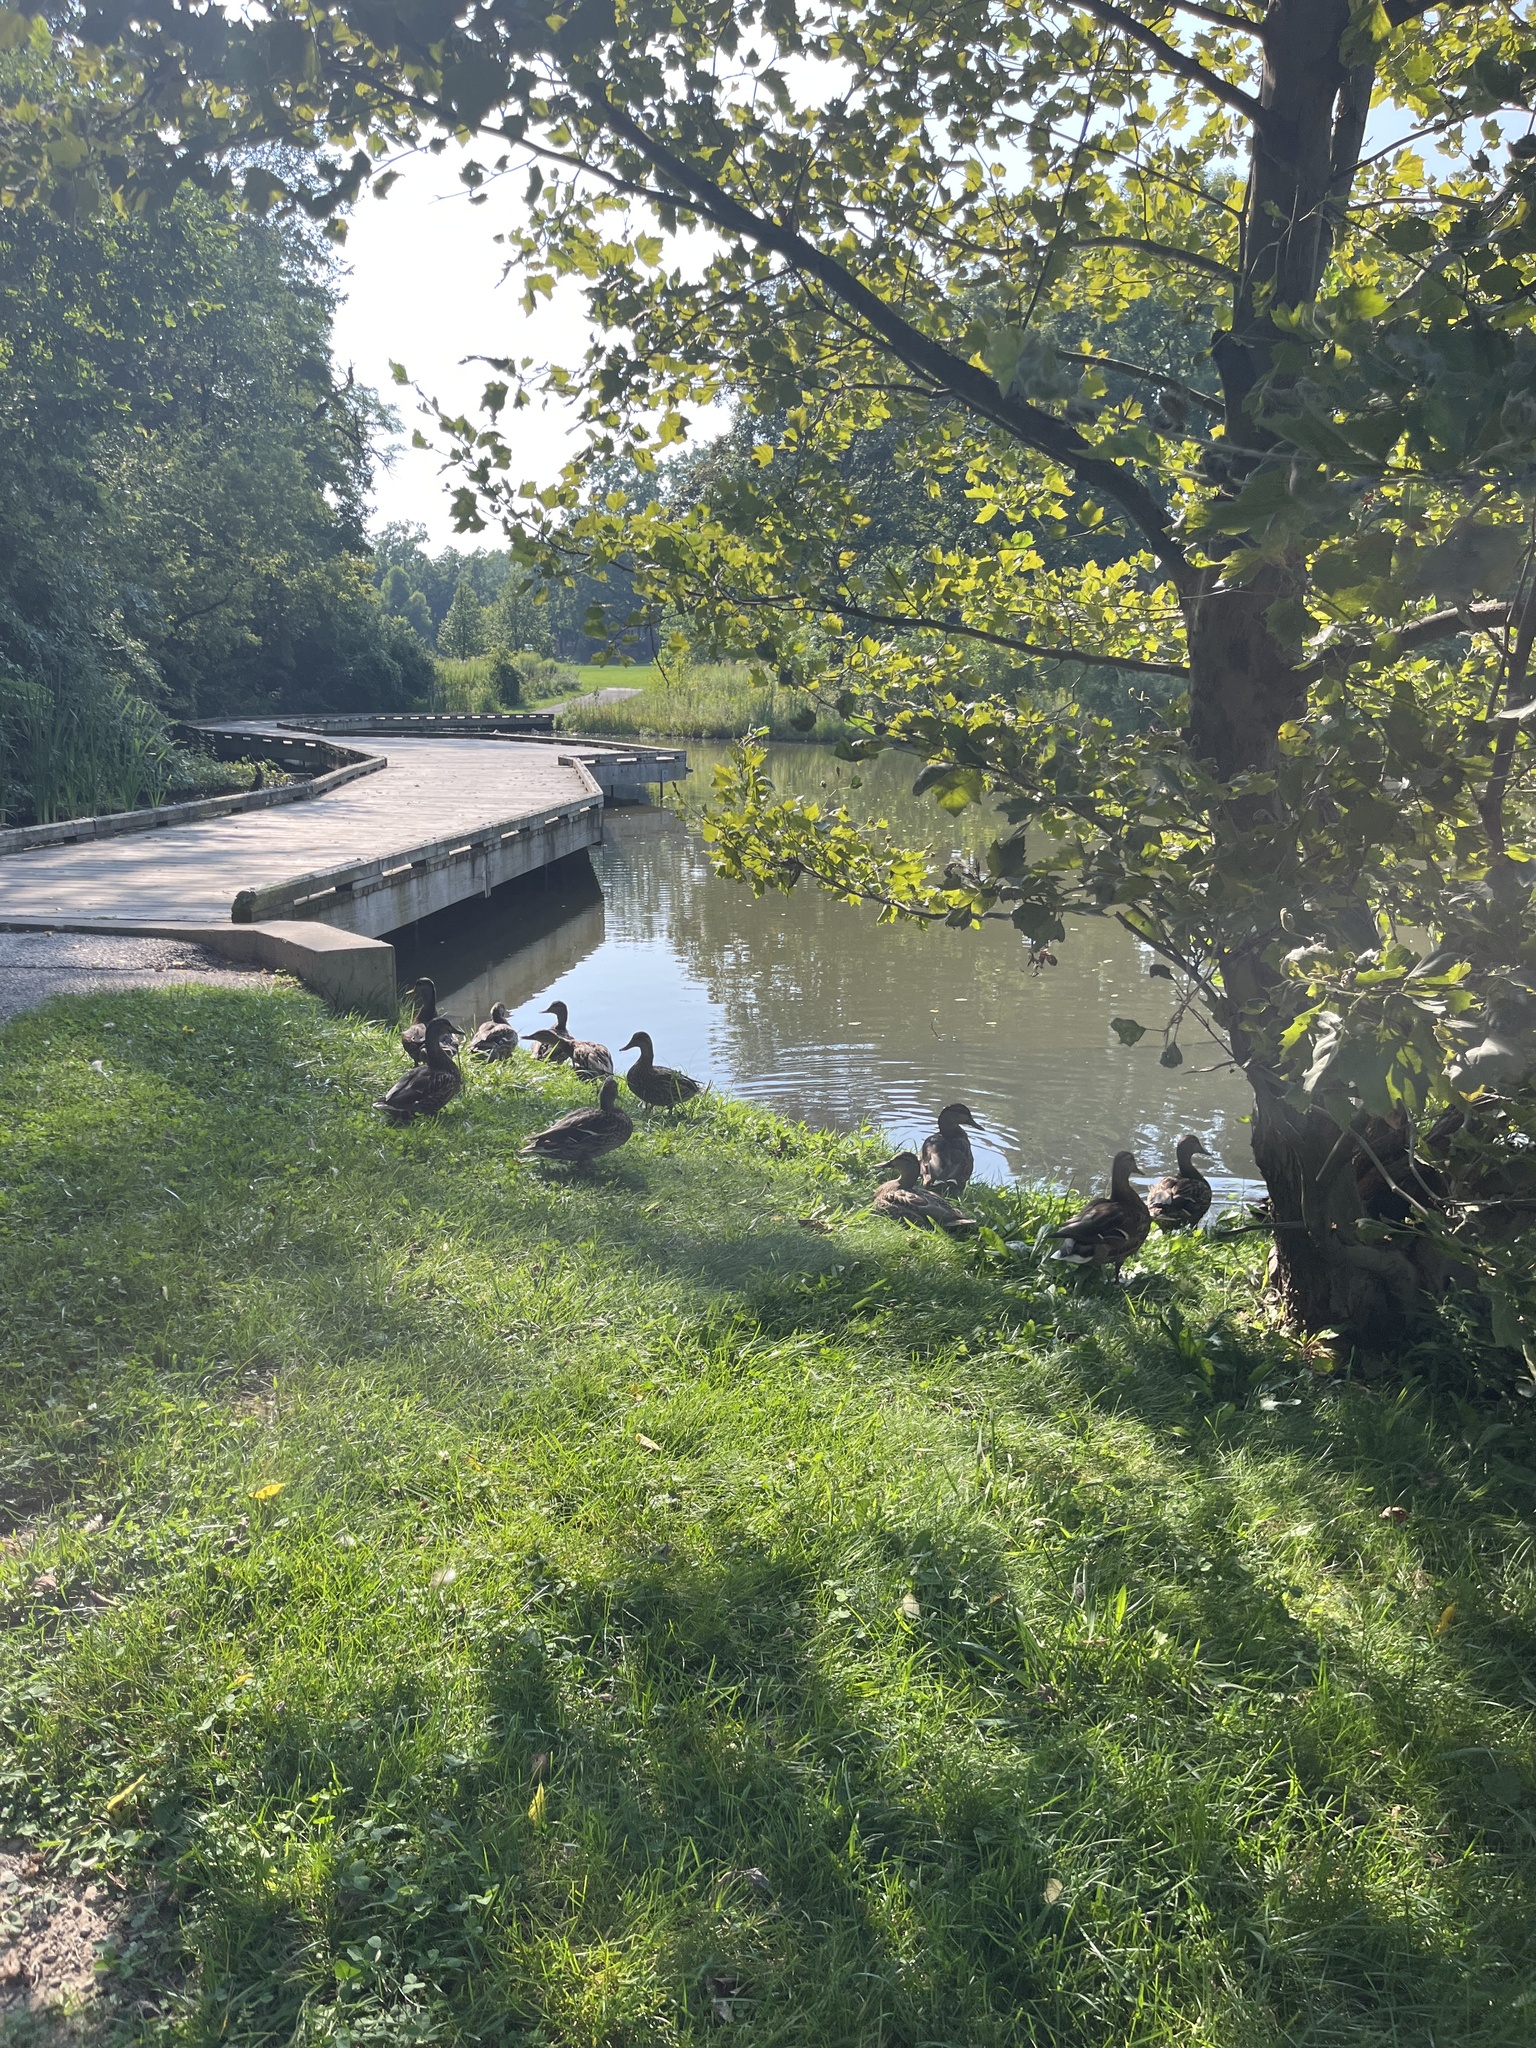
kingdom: Animalia
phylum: Chordata
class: Aves
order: Anseriformes
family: Anatidae
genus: Anas
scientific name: Anas platyrhynchos
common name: Mallard
